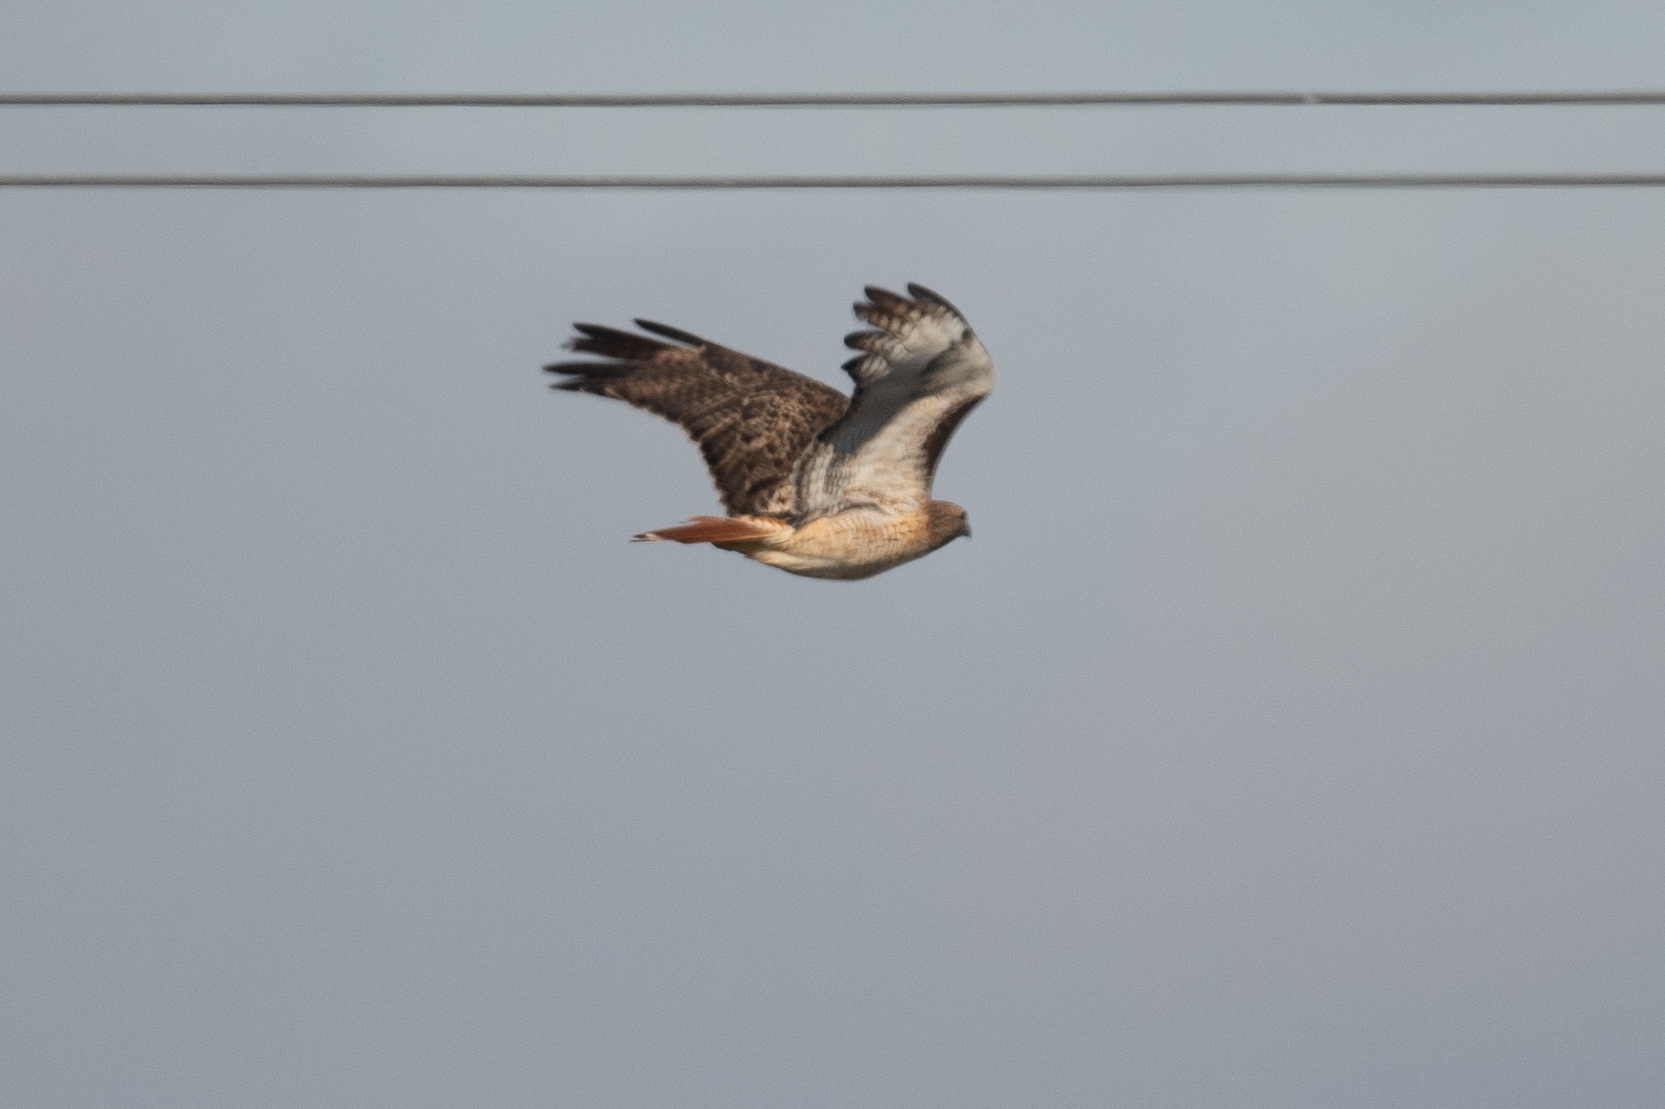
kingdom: Animalia
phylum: Chordata
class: Aves
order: Accipitriformes
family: Accipitridae
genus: Buteo
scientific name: Buteo jamaicensis
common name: Red-tailed hawk
